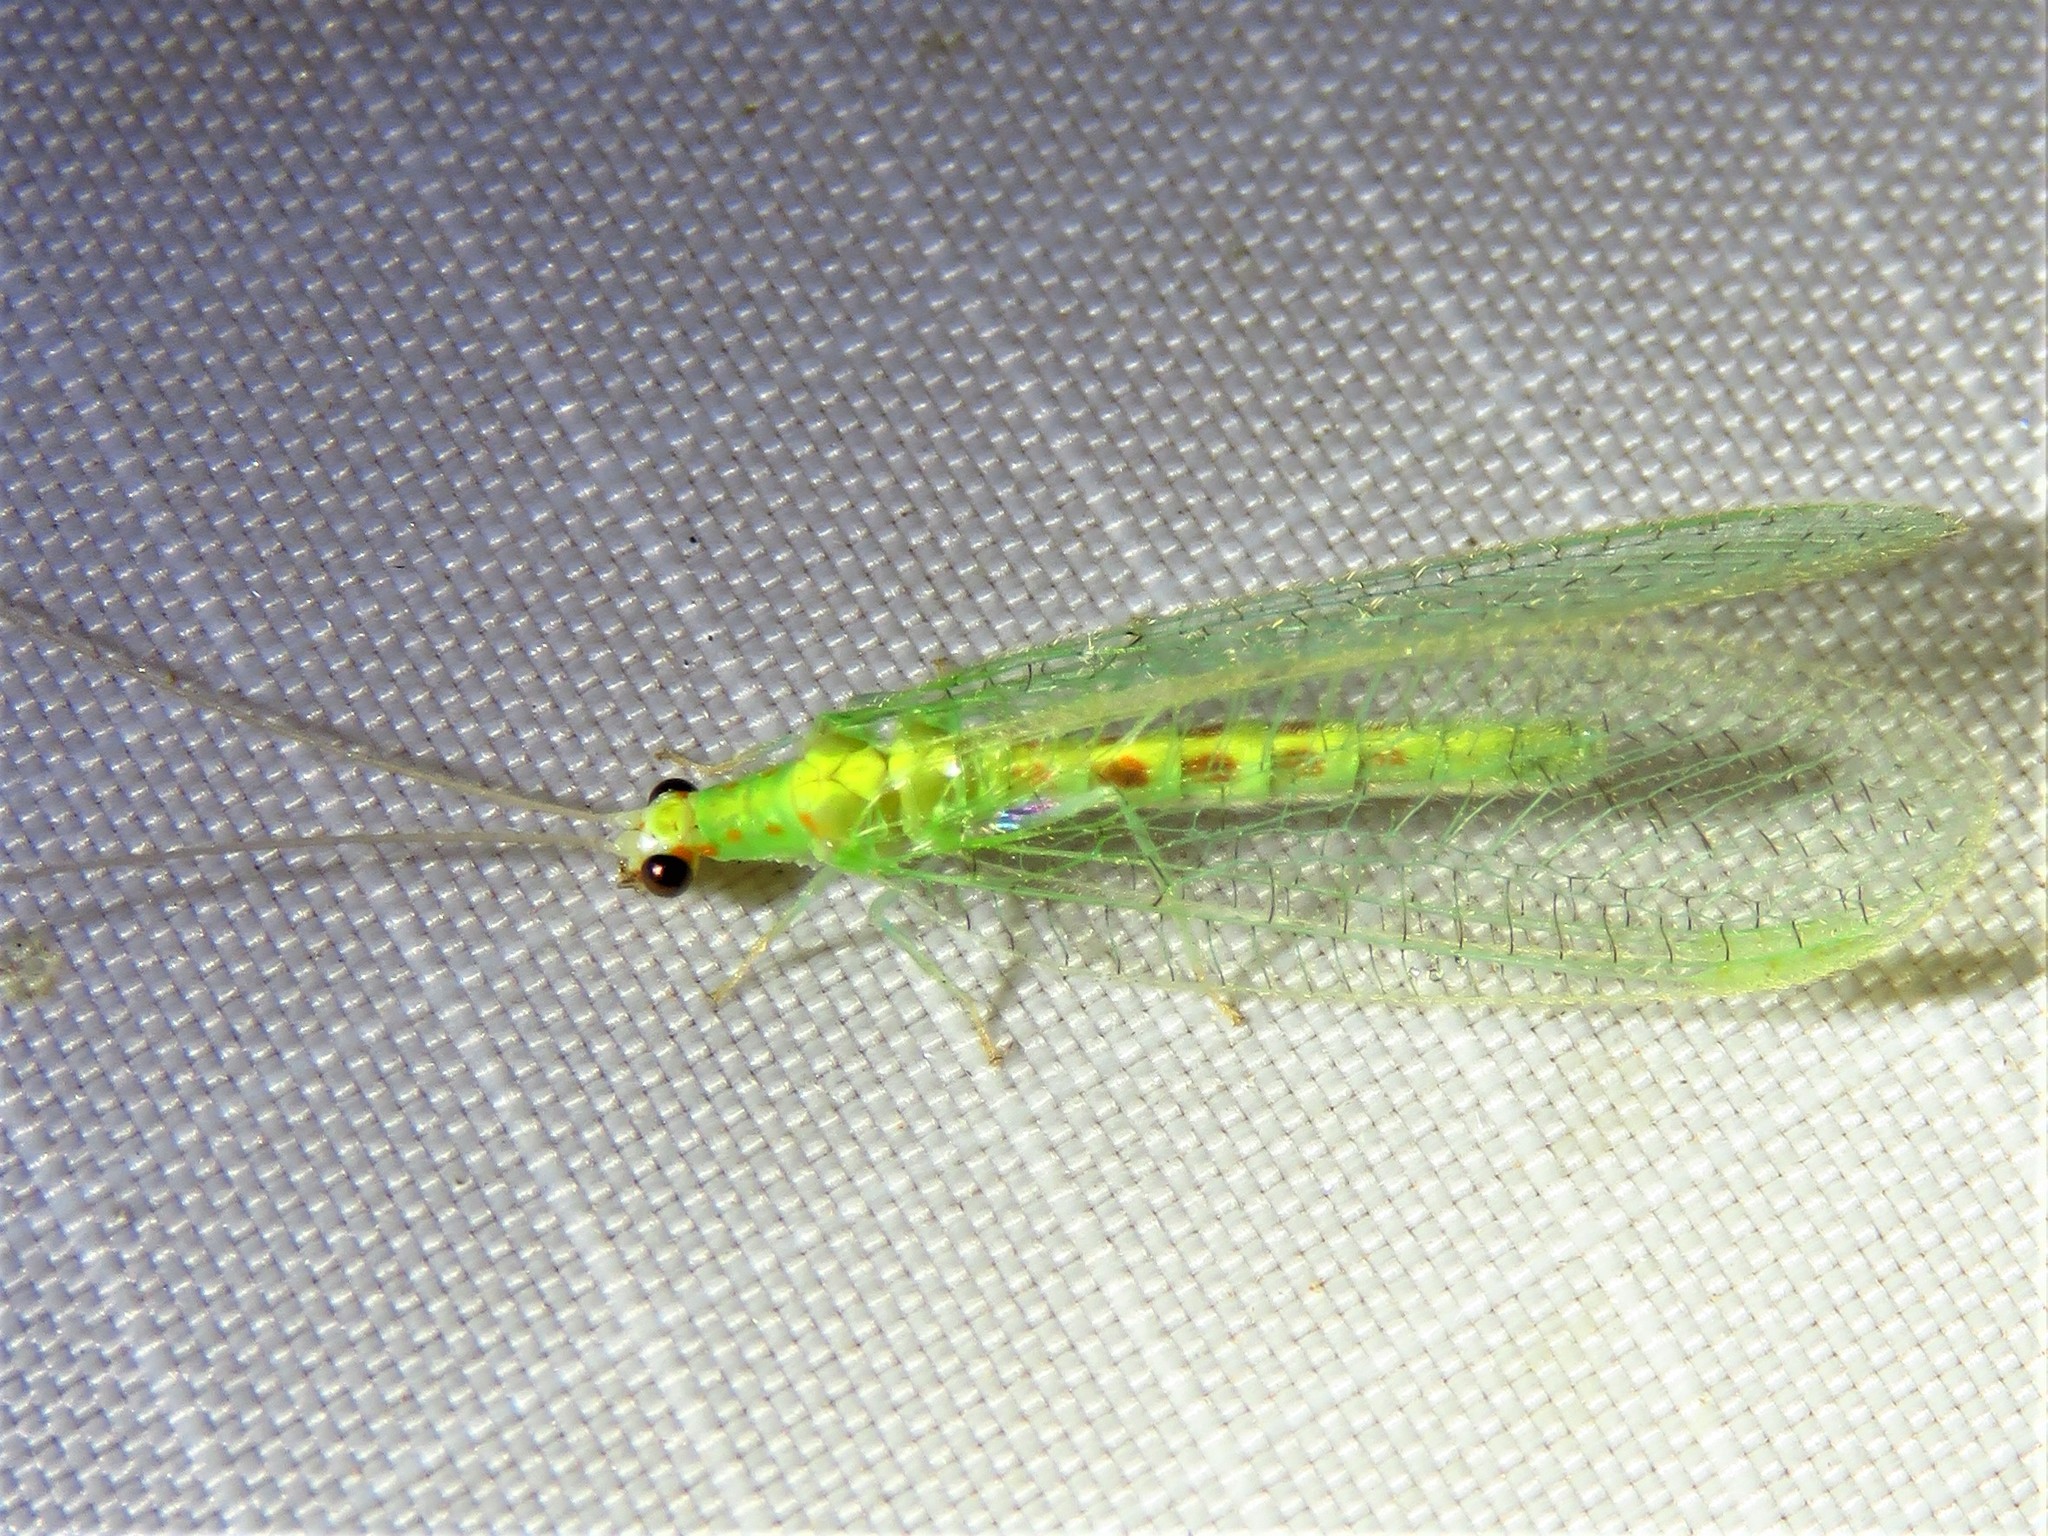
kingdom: Animalia
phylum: Arthropoda
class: Insecta
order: Neuroptera
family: Chrysopidae
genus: Chrysopa
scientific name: Chrysopa quadripunctata
